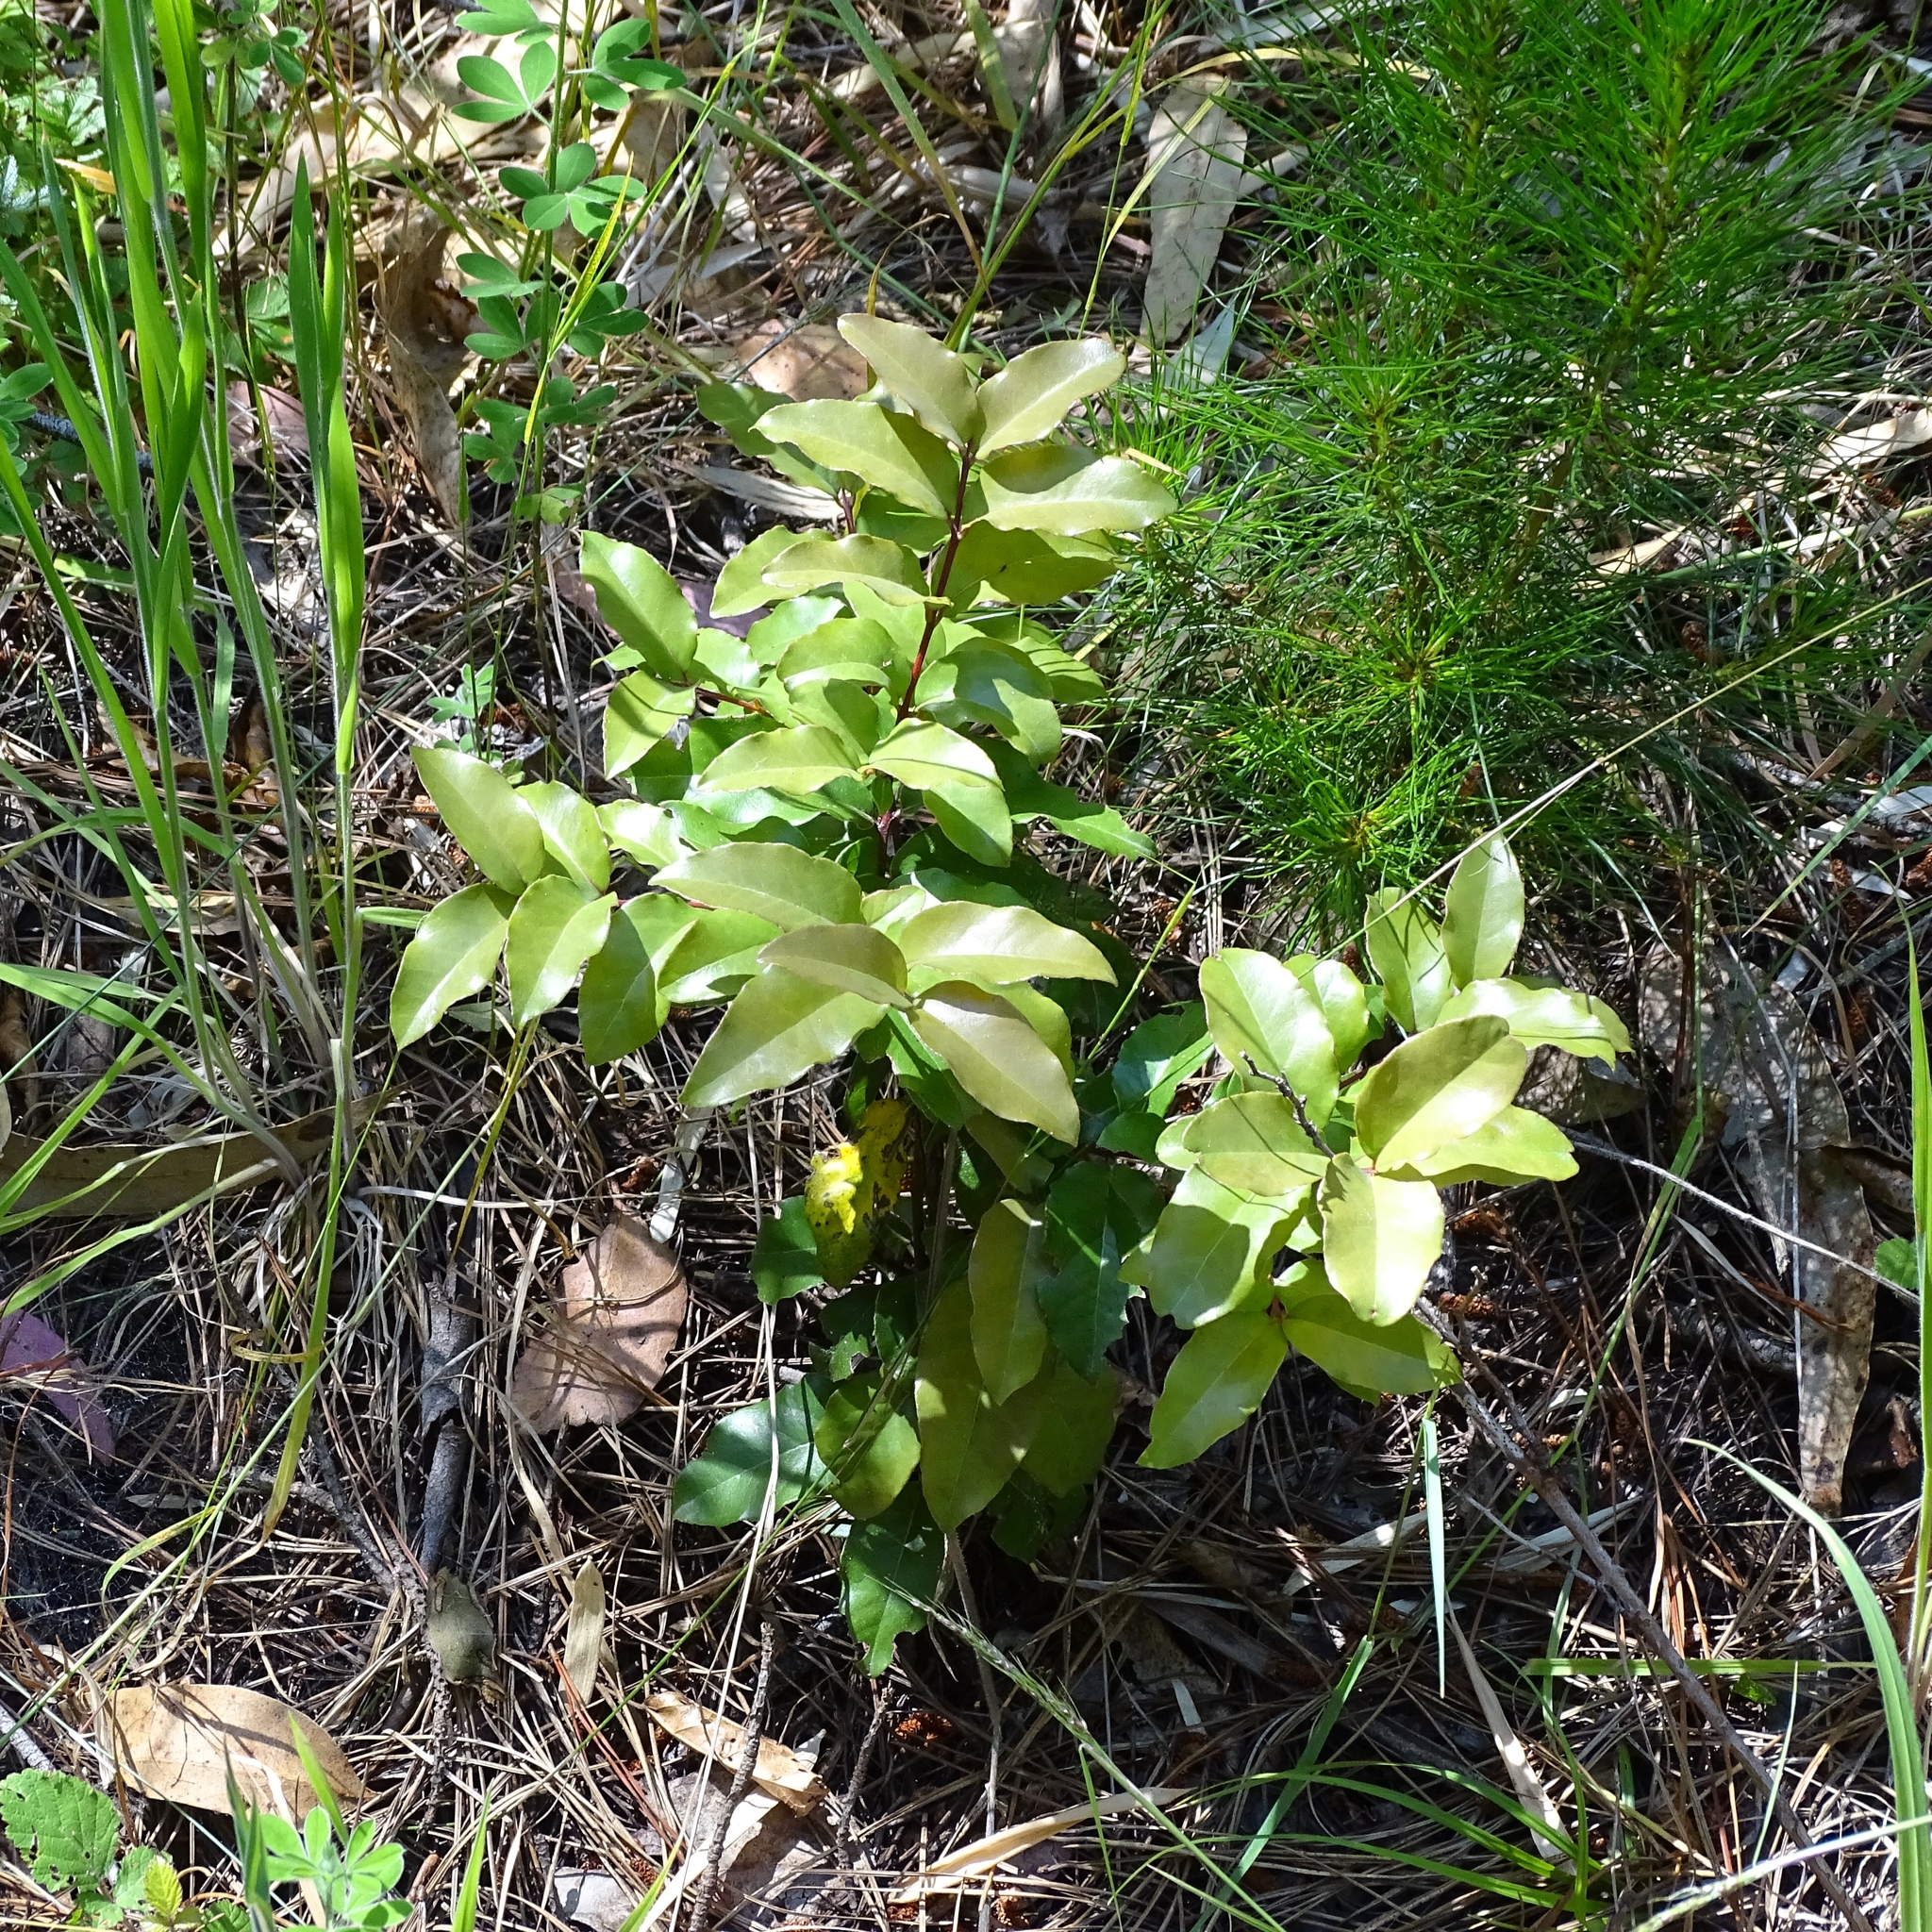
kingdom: Plantae
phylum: Tracheophyta
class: Magnoliopsida
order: Laurales
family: Lauraceae
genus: Cryptocarya
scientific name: Cryptocarya alba
